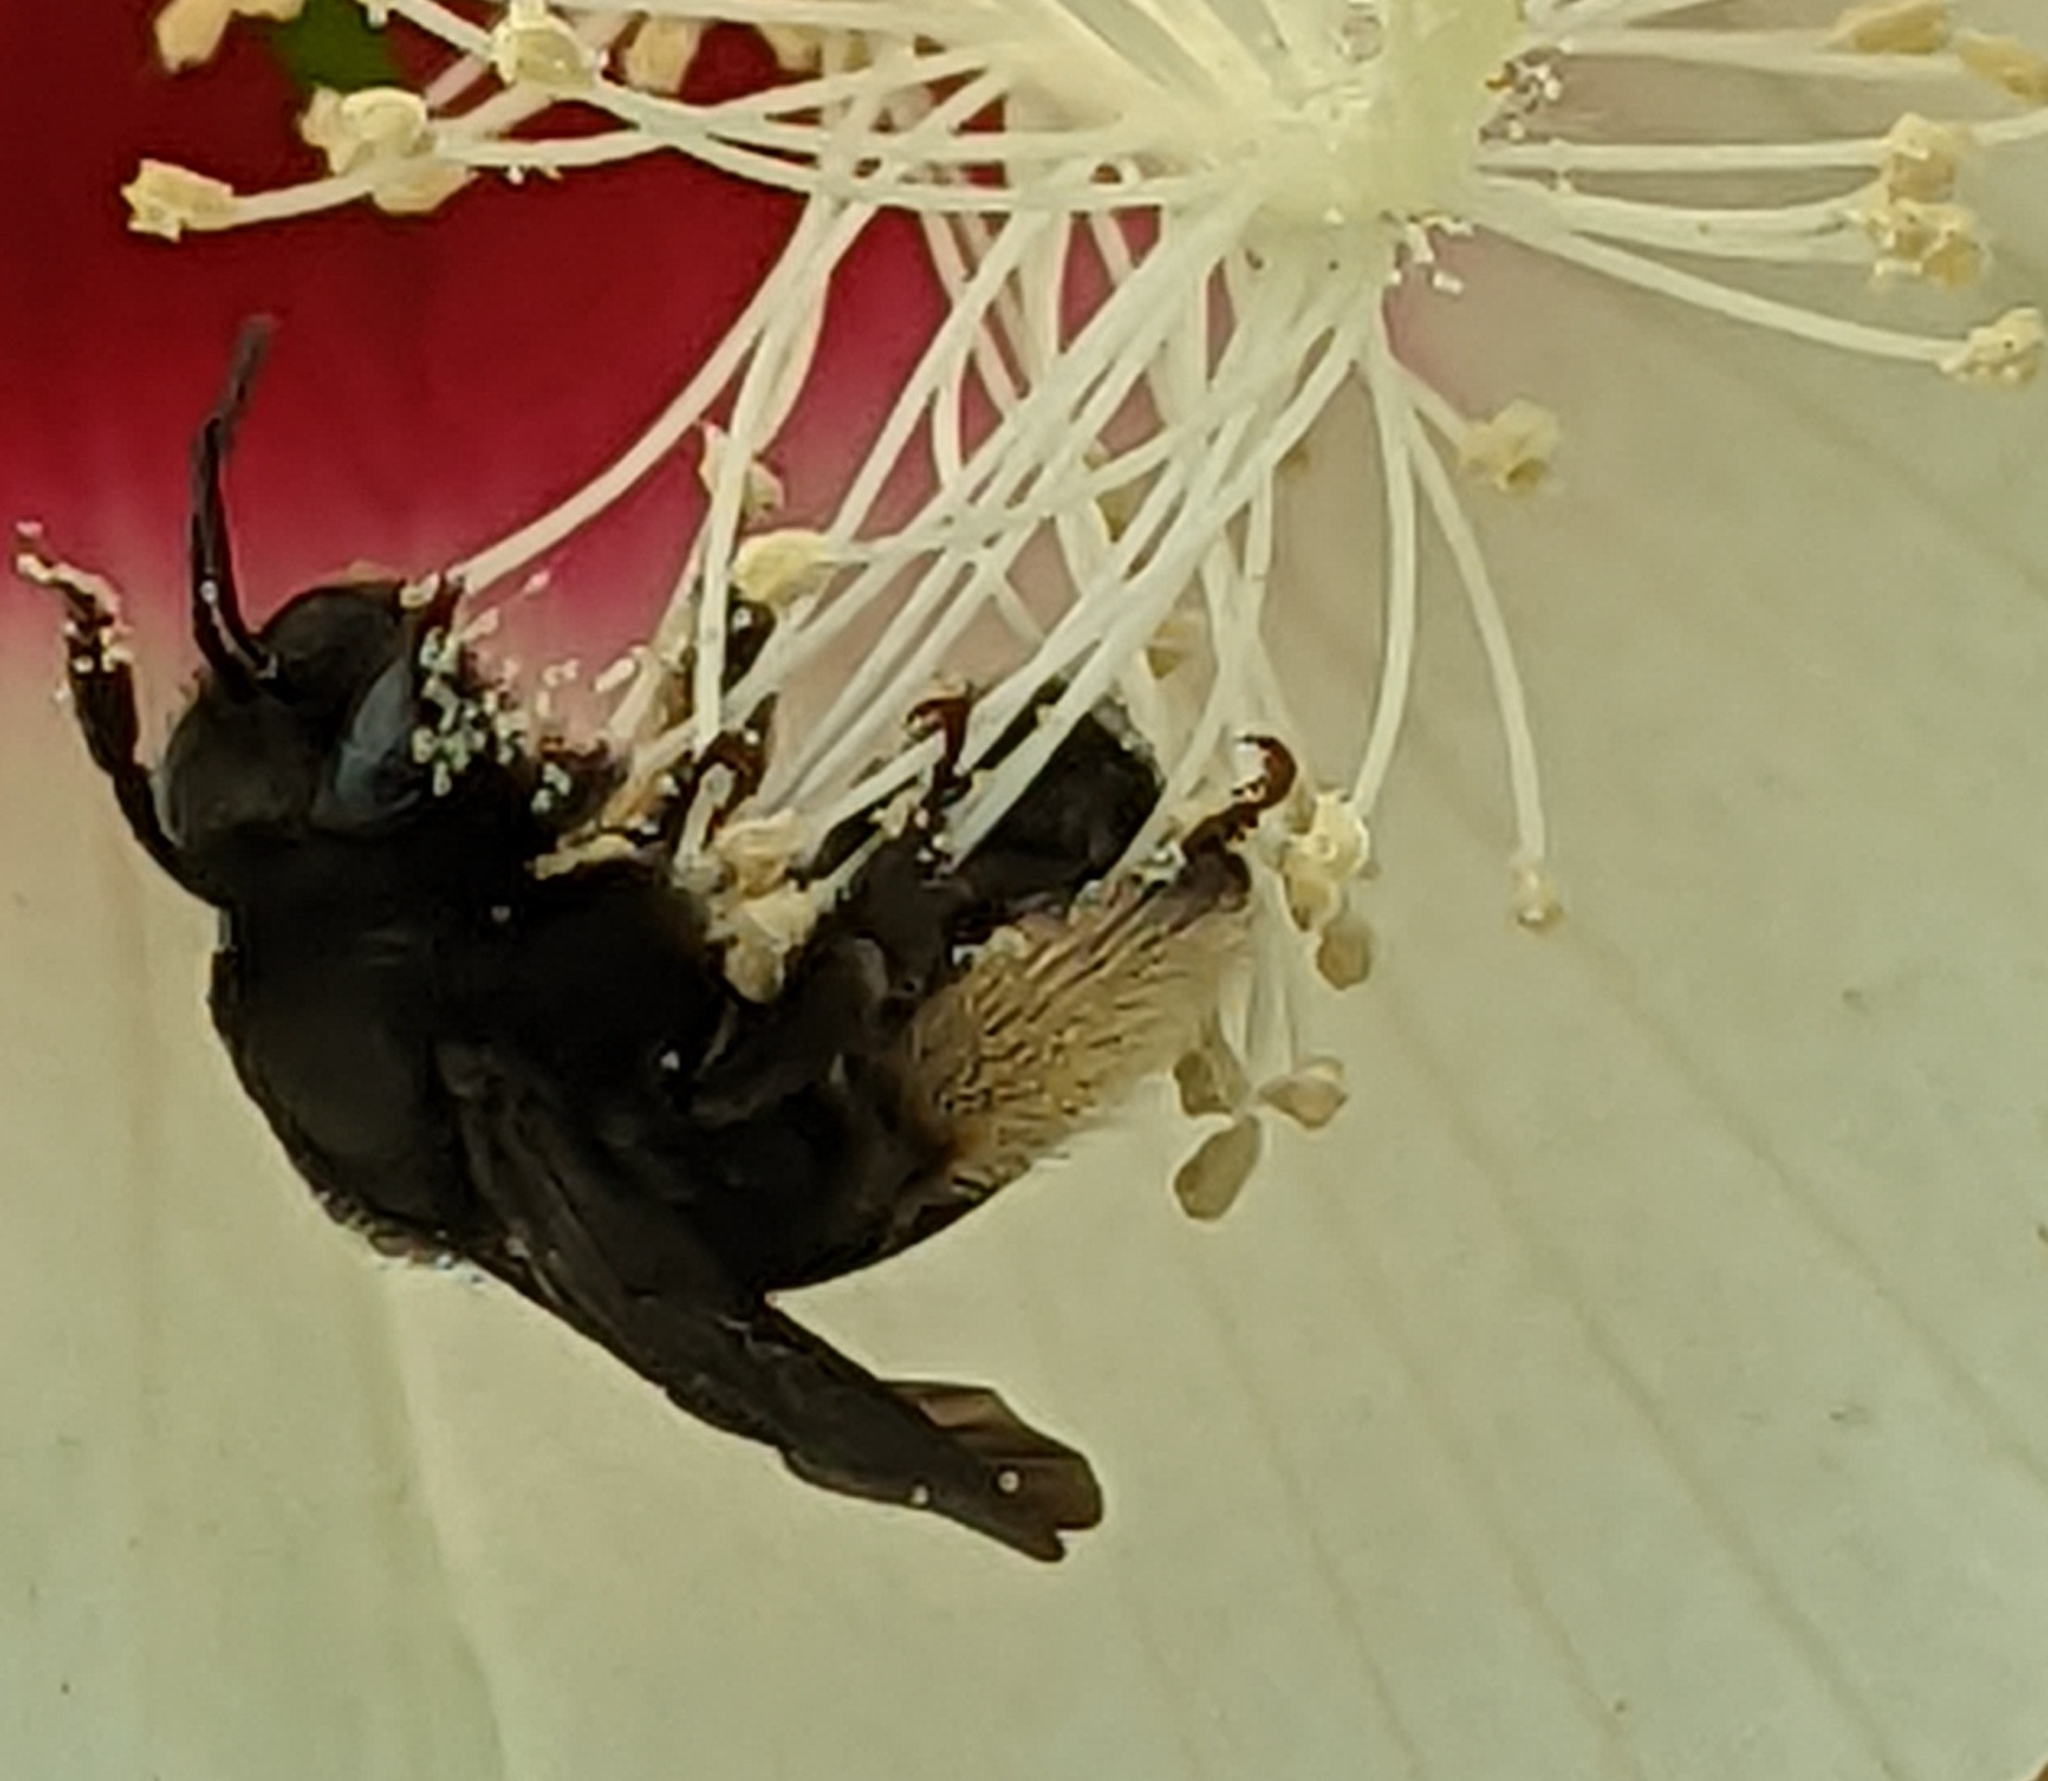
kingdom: Animalia
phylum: Arthropoda
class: Insecta
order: Hymenoptera
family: Apidae
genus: Melissodes
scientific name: Melissodes bimaculatus
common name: Two-spotted long-horned bee
